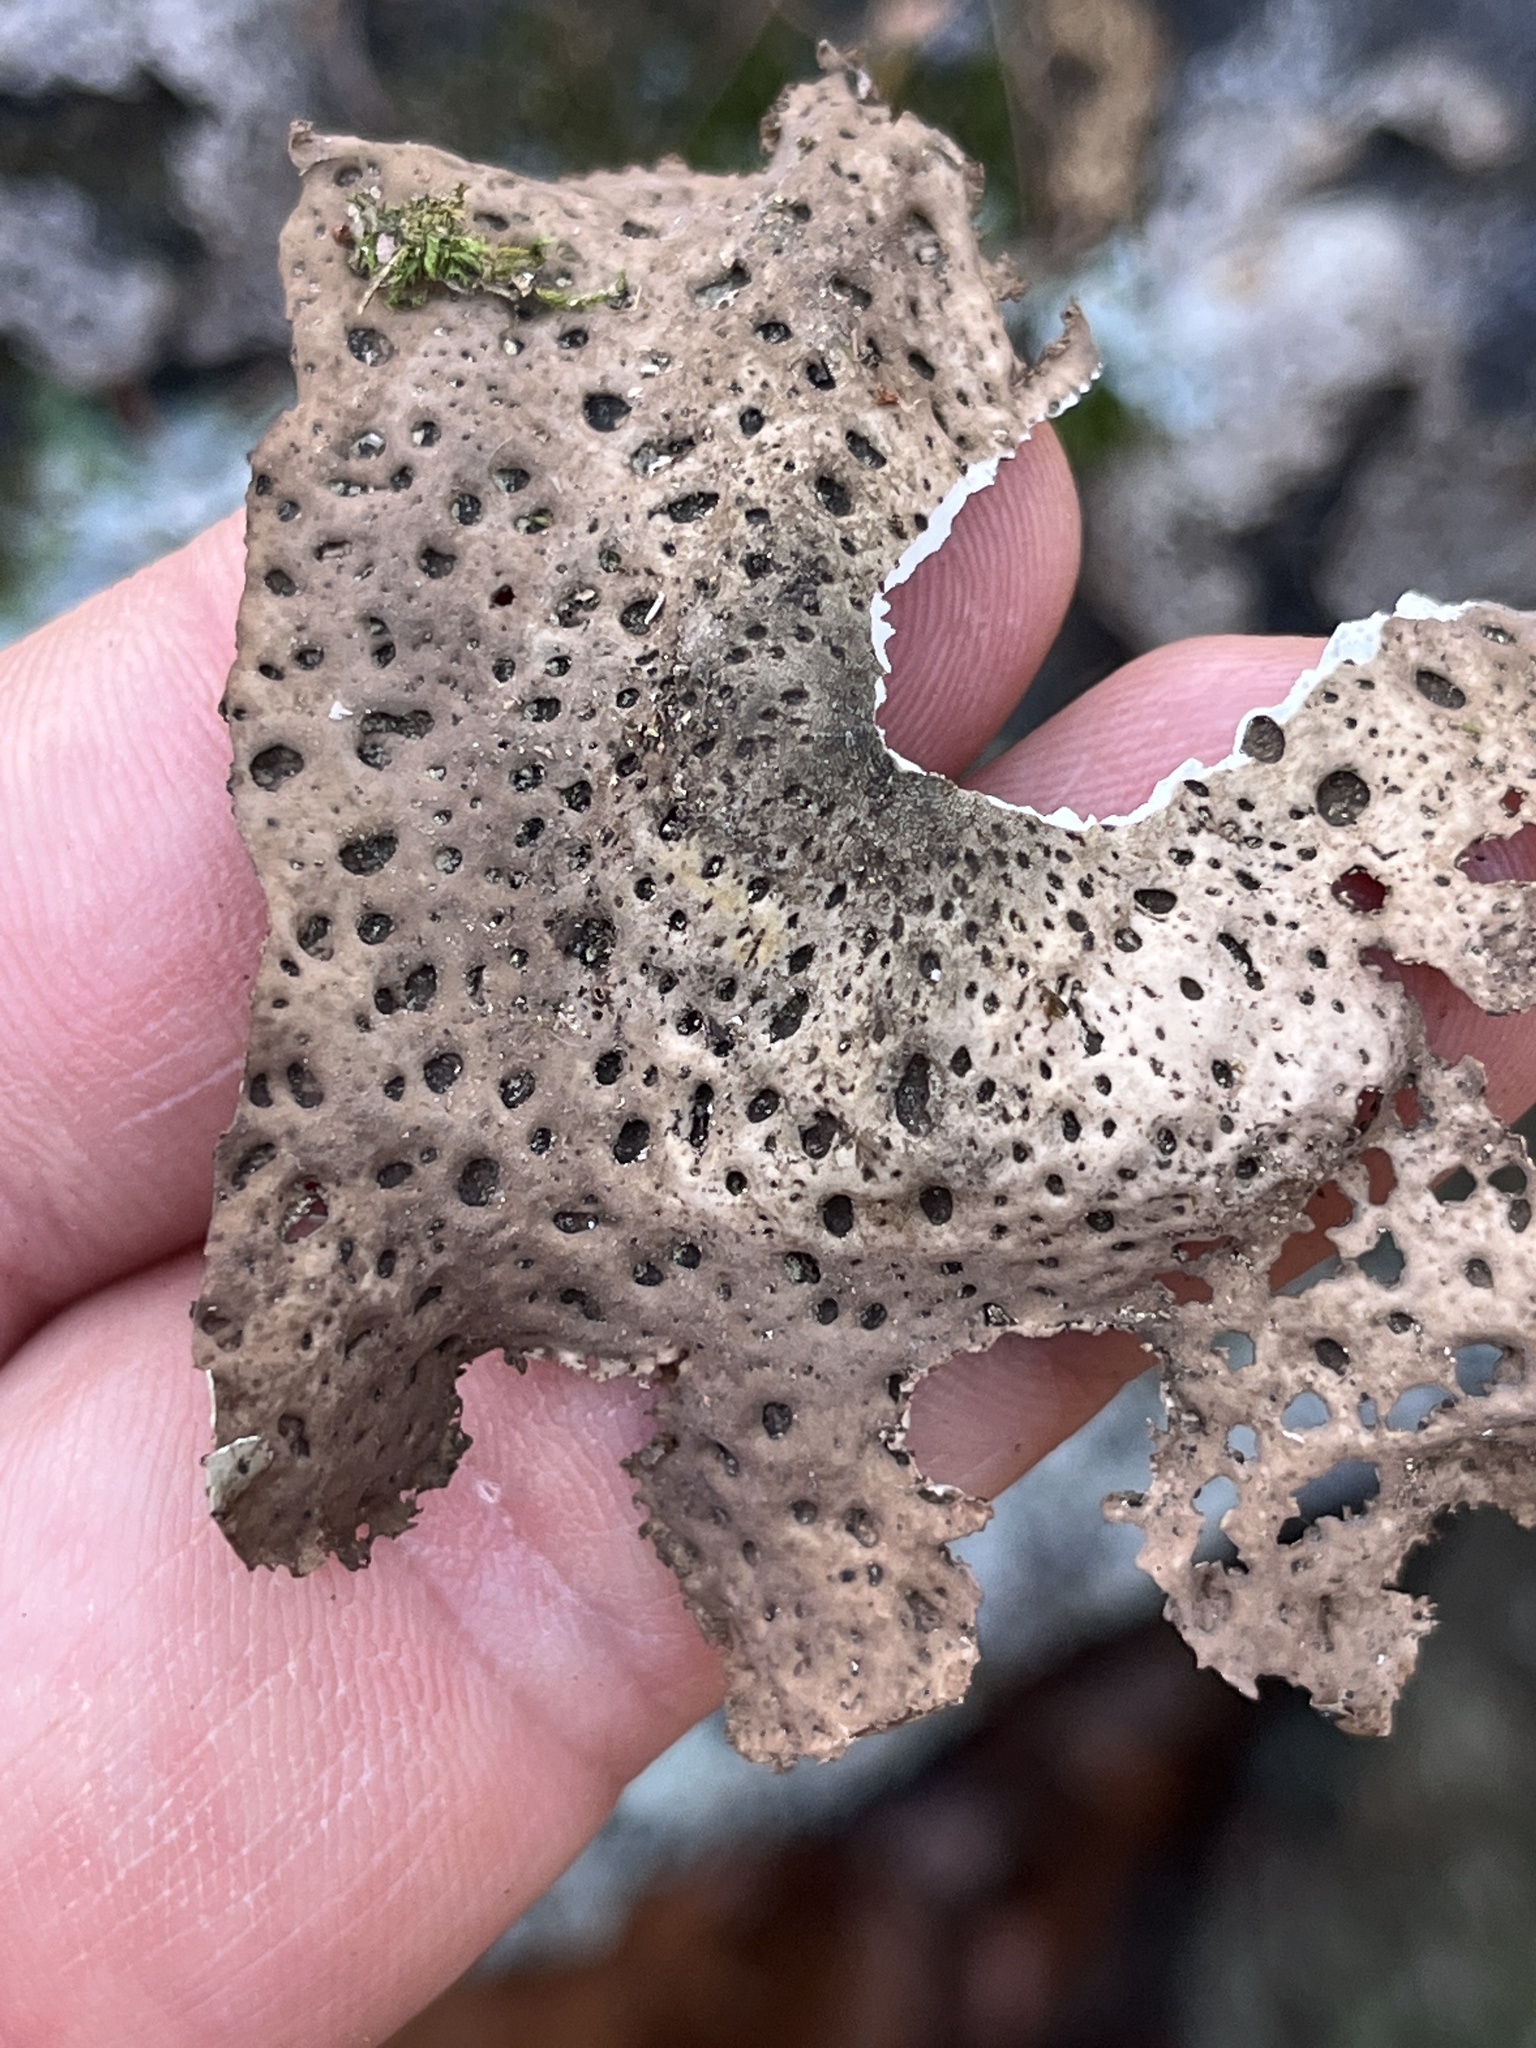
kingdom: Fungi
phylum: Ascomycota
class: Lecanoromycetes
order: Umbilicariales
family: Umbilicariaceae
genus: Lasallia
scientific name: Lasallia papulosa
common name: Common toadskin lichen
